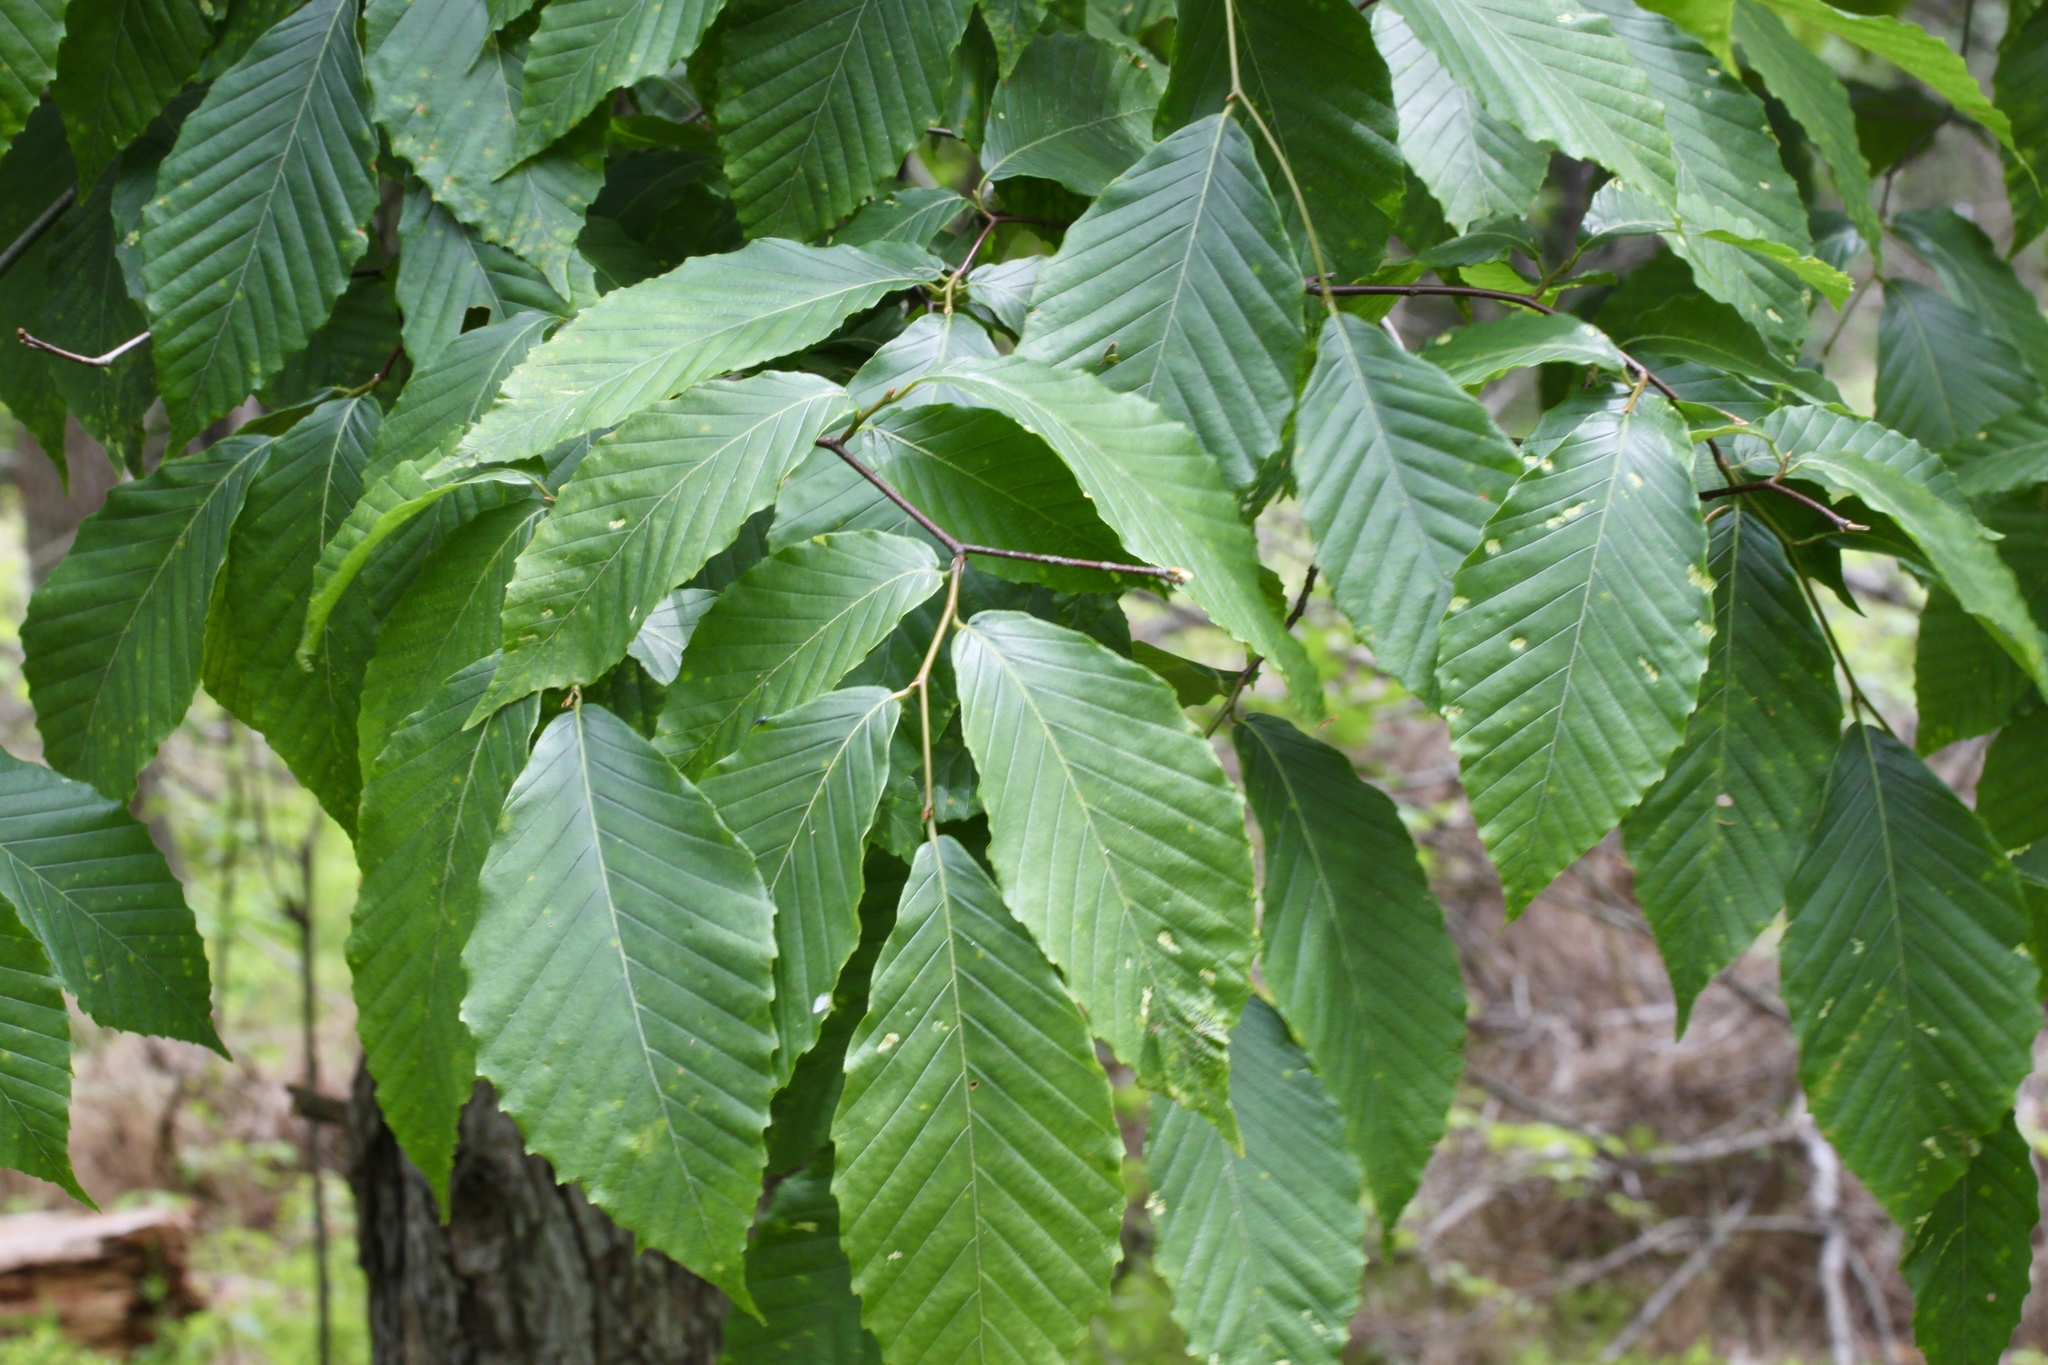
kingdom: Plantae
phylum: Tracheophyta
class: Magnoliopsida
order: Fagales
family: Fagaceae
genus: Fagus
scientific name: Fagus grandifolia
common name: American beech
